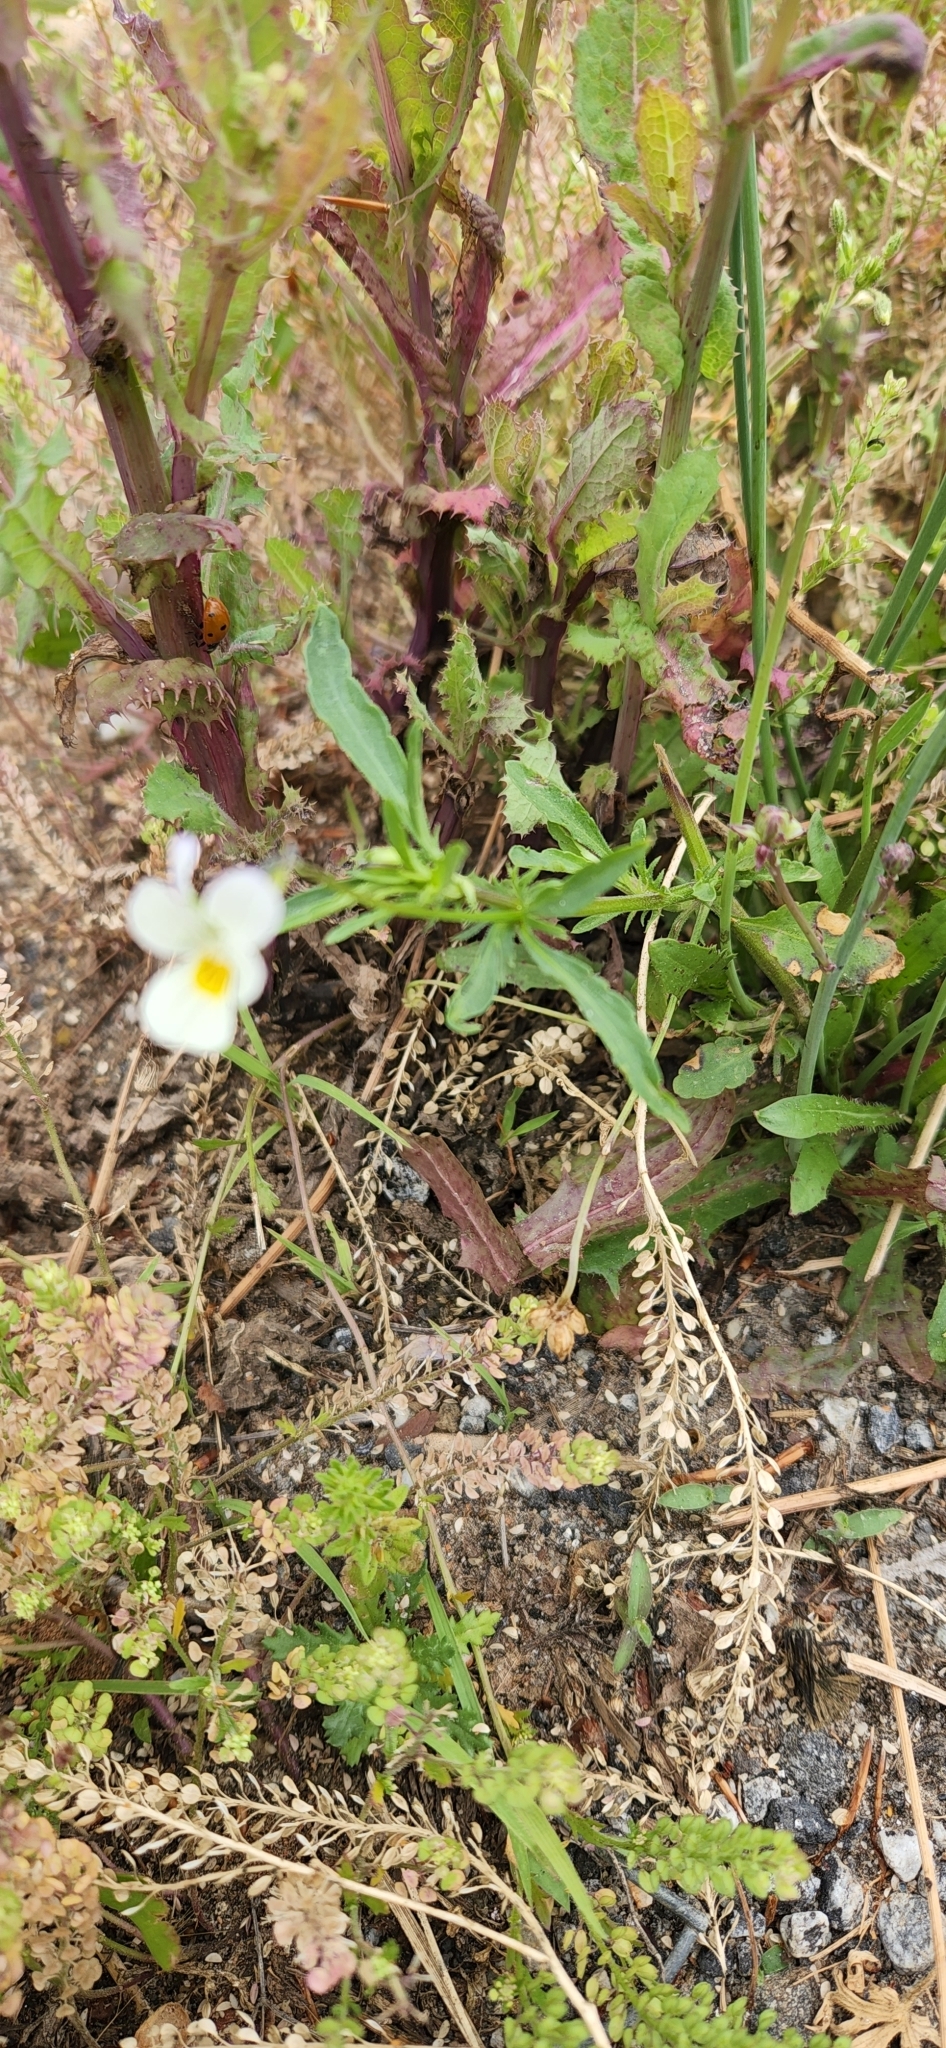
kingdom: Plantae
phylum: Tracheophyta
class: Magnoliopsida
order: Malpighiales
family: Violaceae
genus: Viola
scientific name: Viola arvensis
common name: Field pansy
